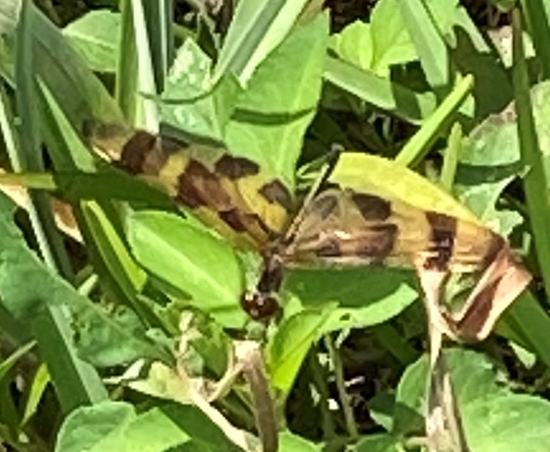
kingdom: Animalia
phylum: Arthropoda
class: Insecta
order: Odonata
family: Libellulidae
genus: Celithemis
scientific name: Celithemis eponina
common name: Halloween pennant
